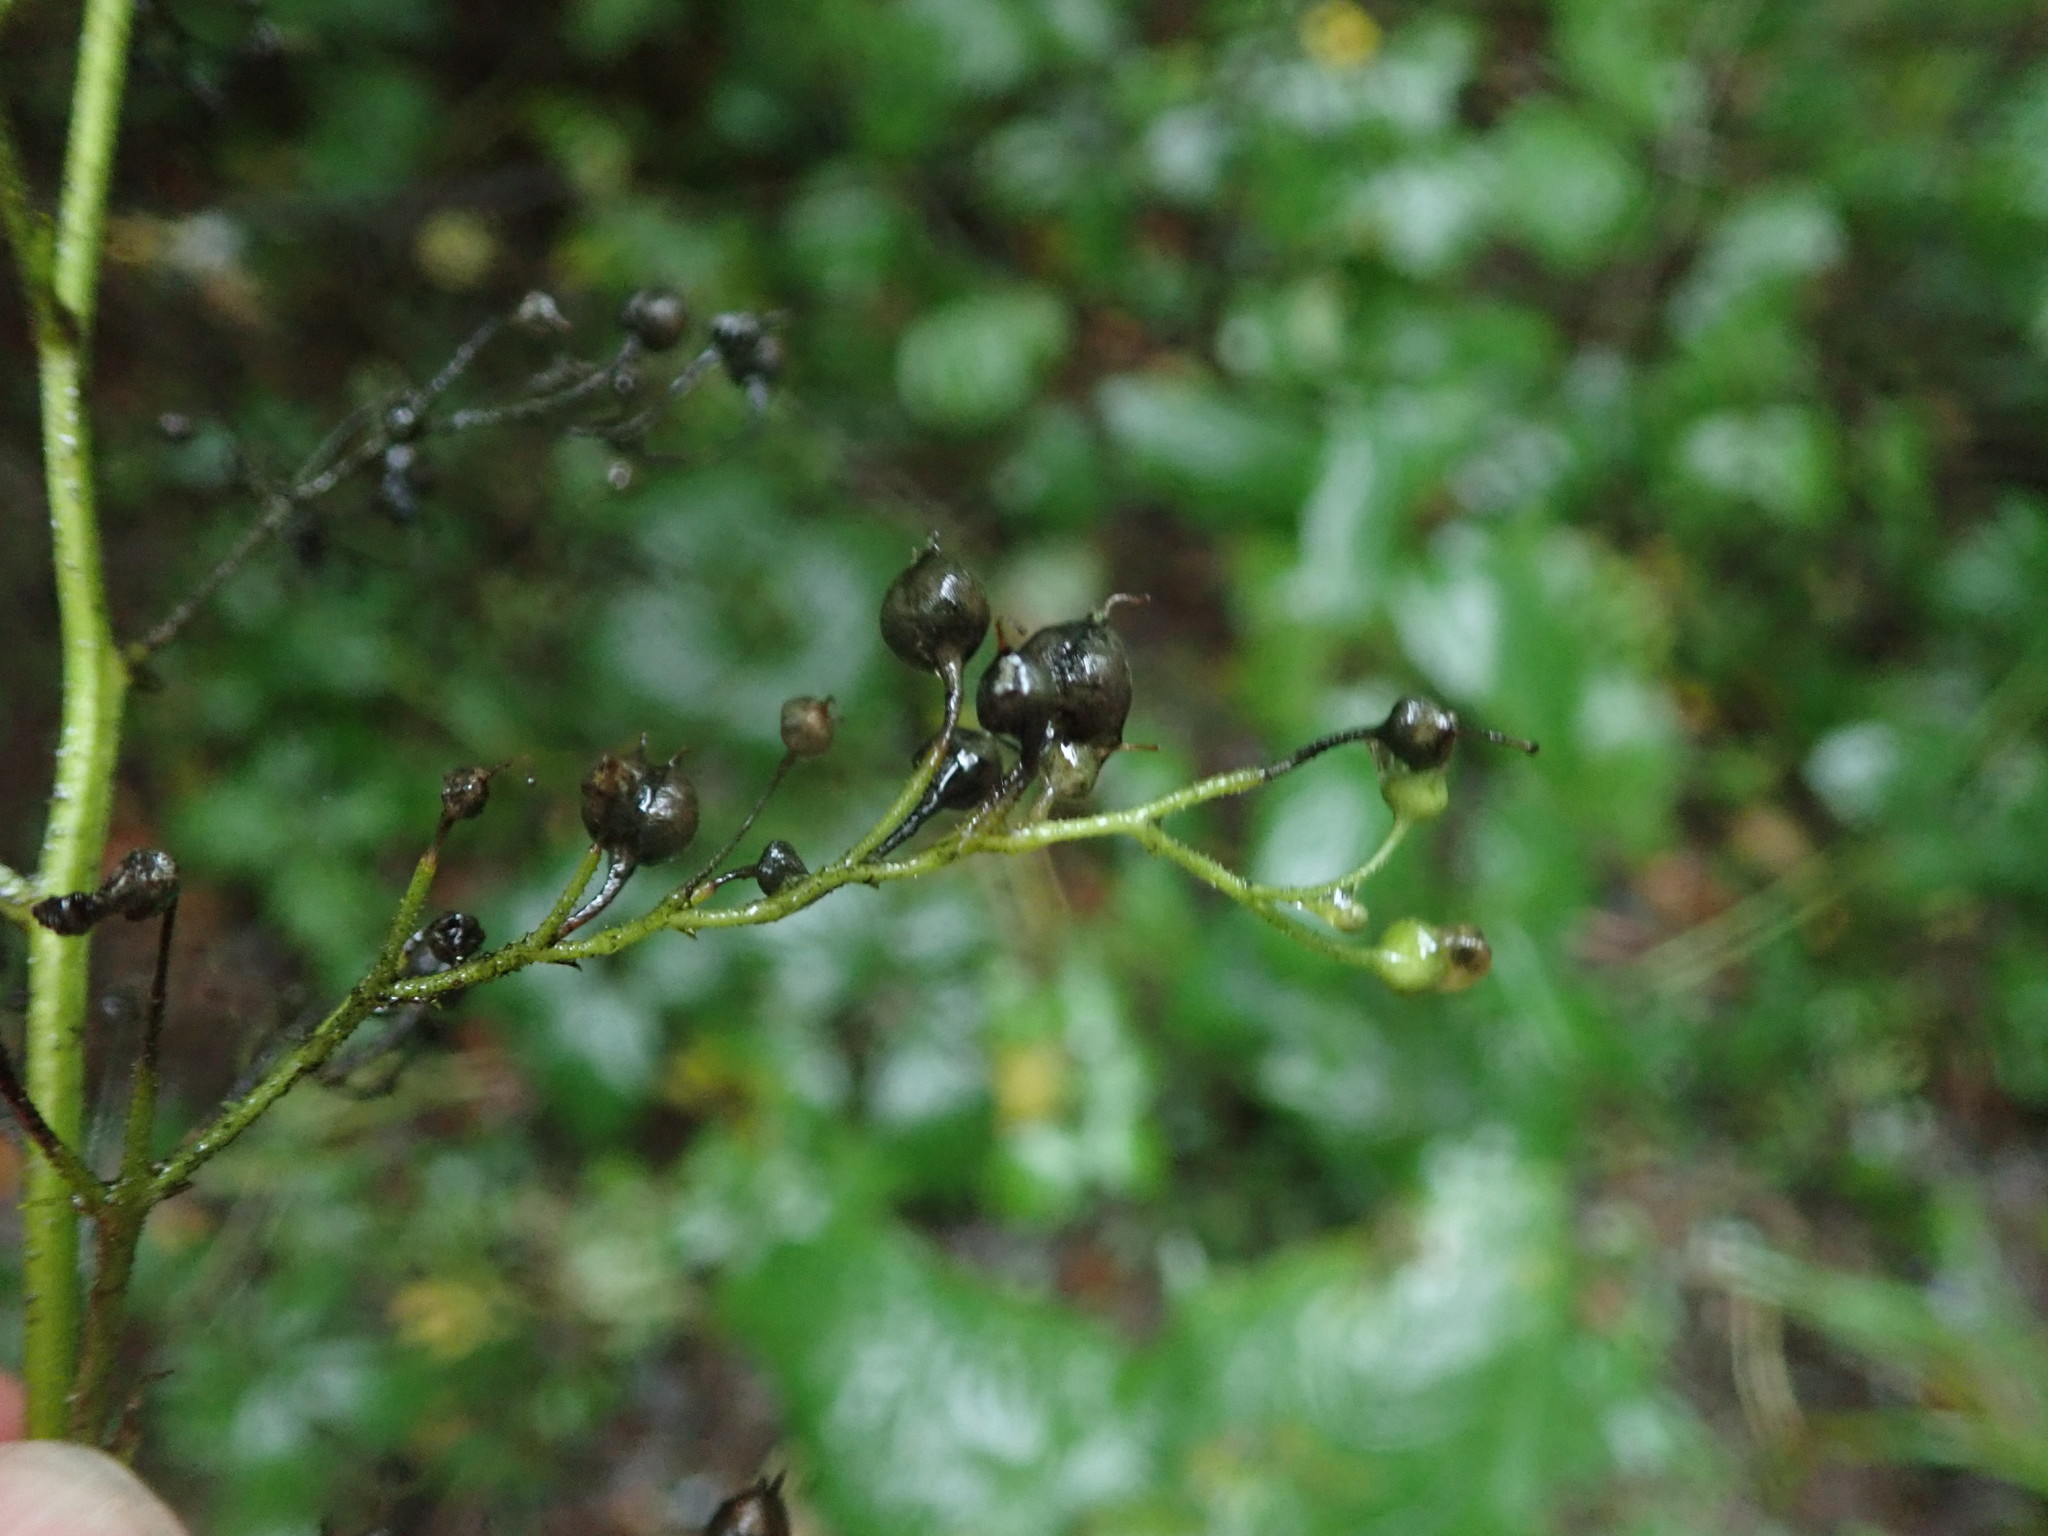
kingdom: Plantae
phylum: Tracheophyta
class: Magnoliopsida
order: Lamiales
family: Scrophulariaceae
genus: Scrophularia
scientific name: Scrophularia nodosa
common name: Common figwort
